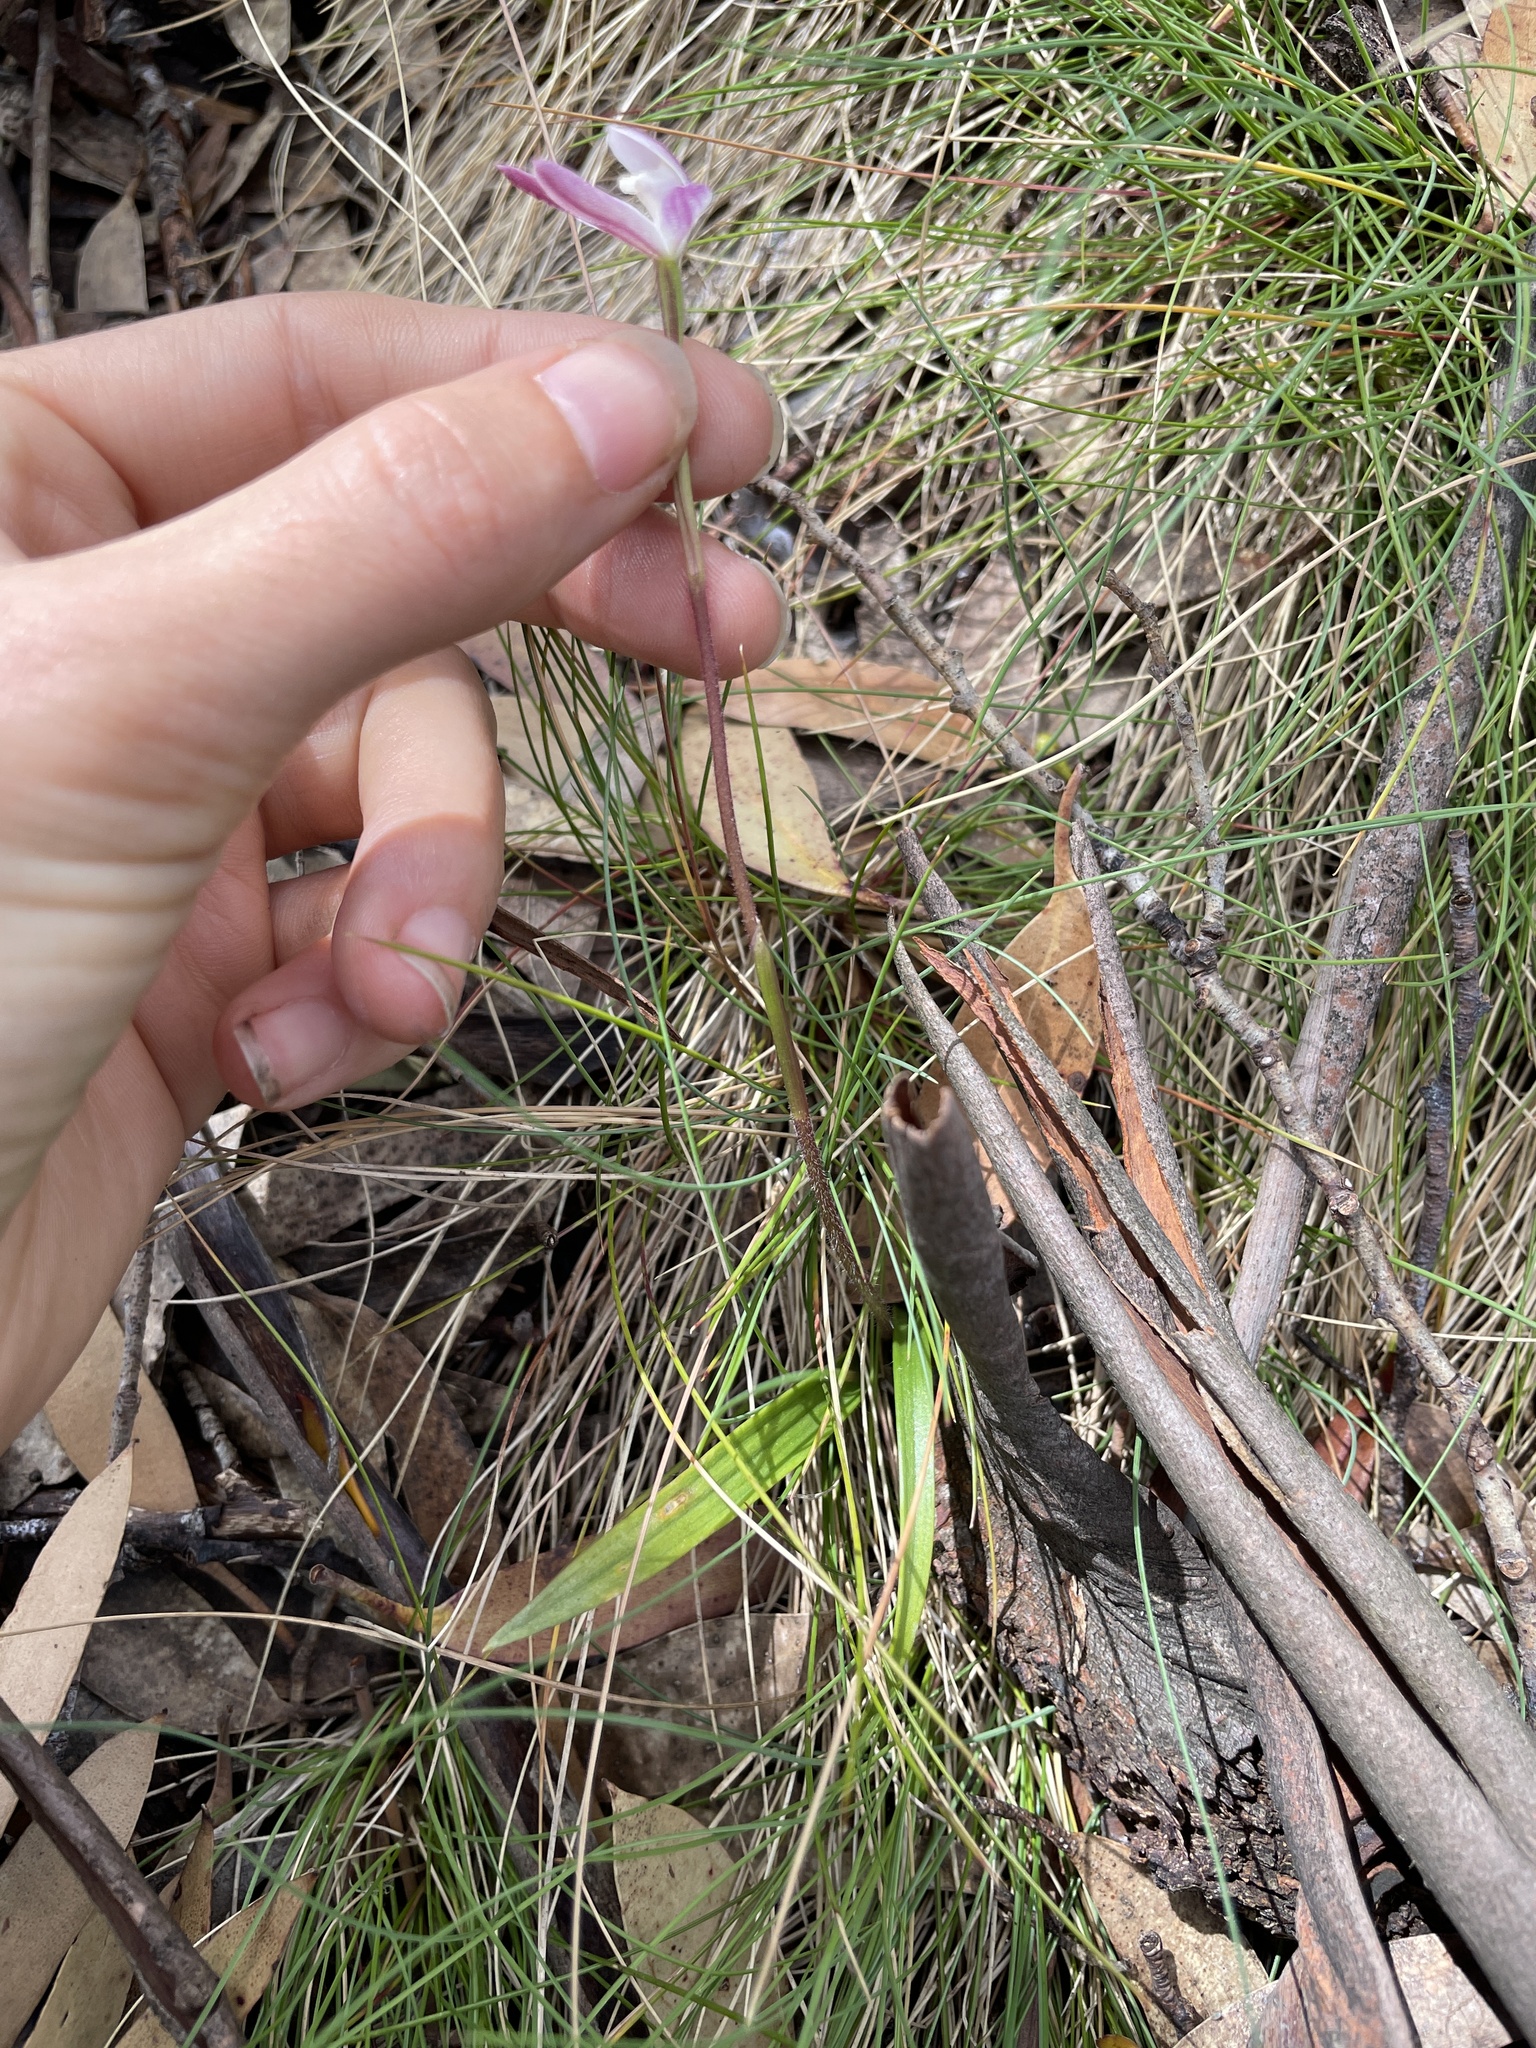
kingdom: Plantae
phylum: Tracheophyta
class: Liliopsida
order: Asparagales
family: Orchidaceae
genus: Caladenia
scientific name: Caladenia alpina
